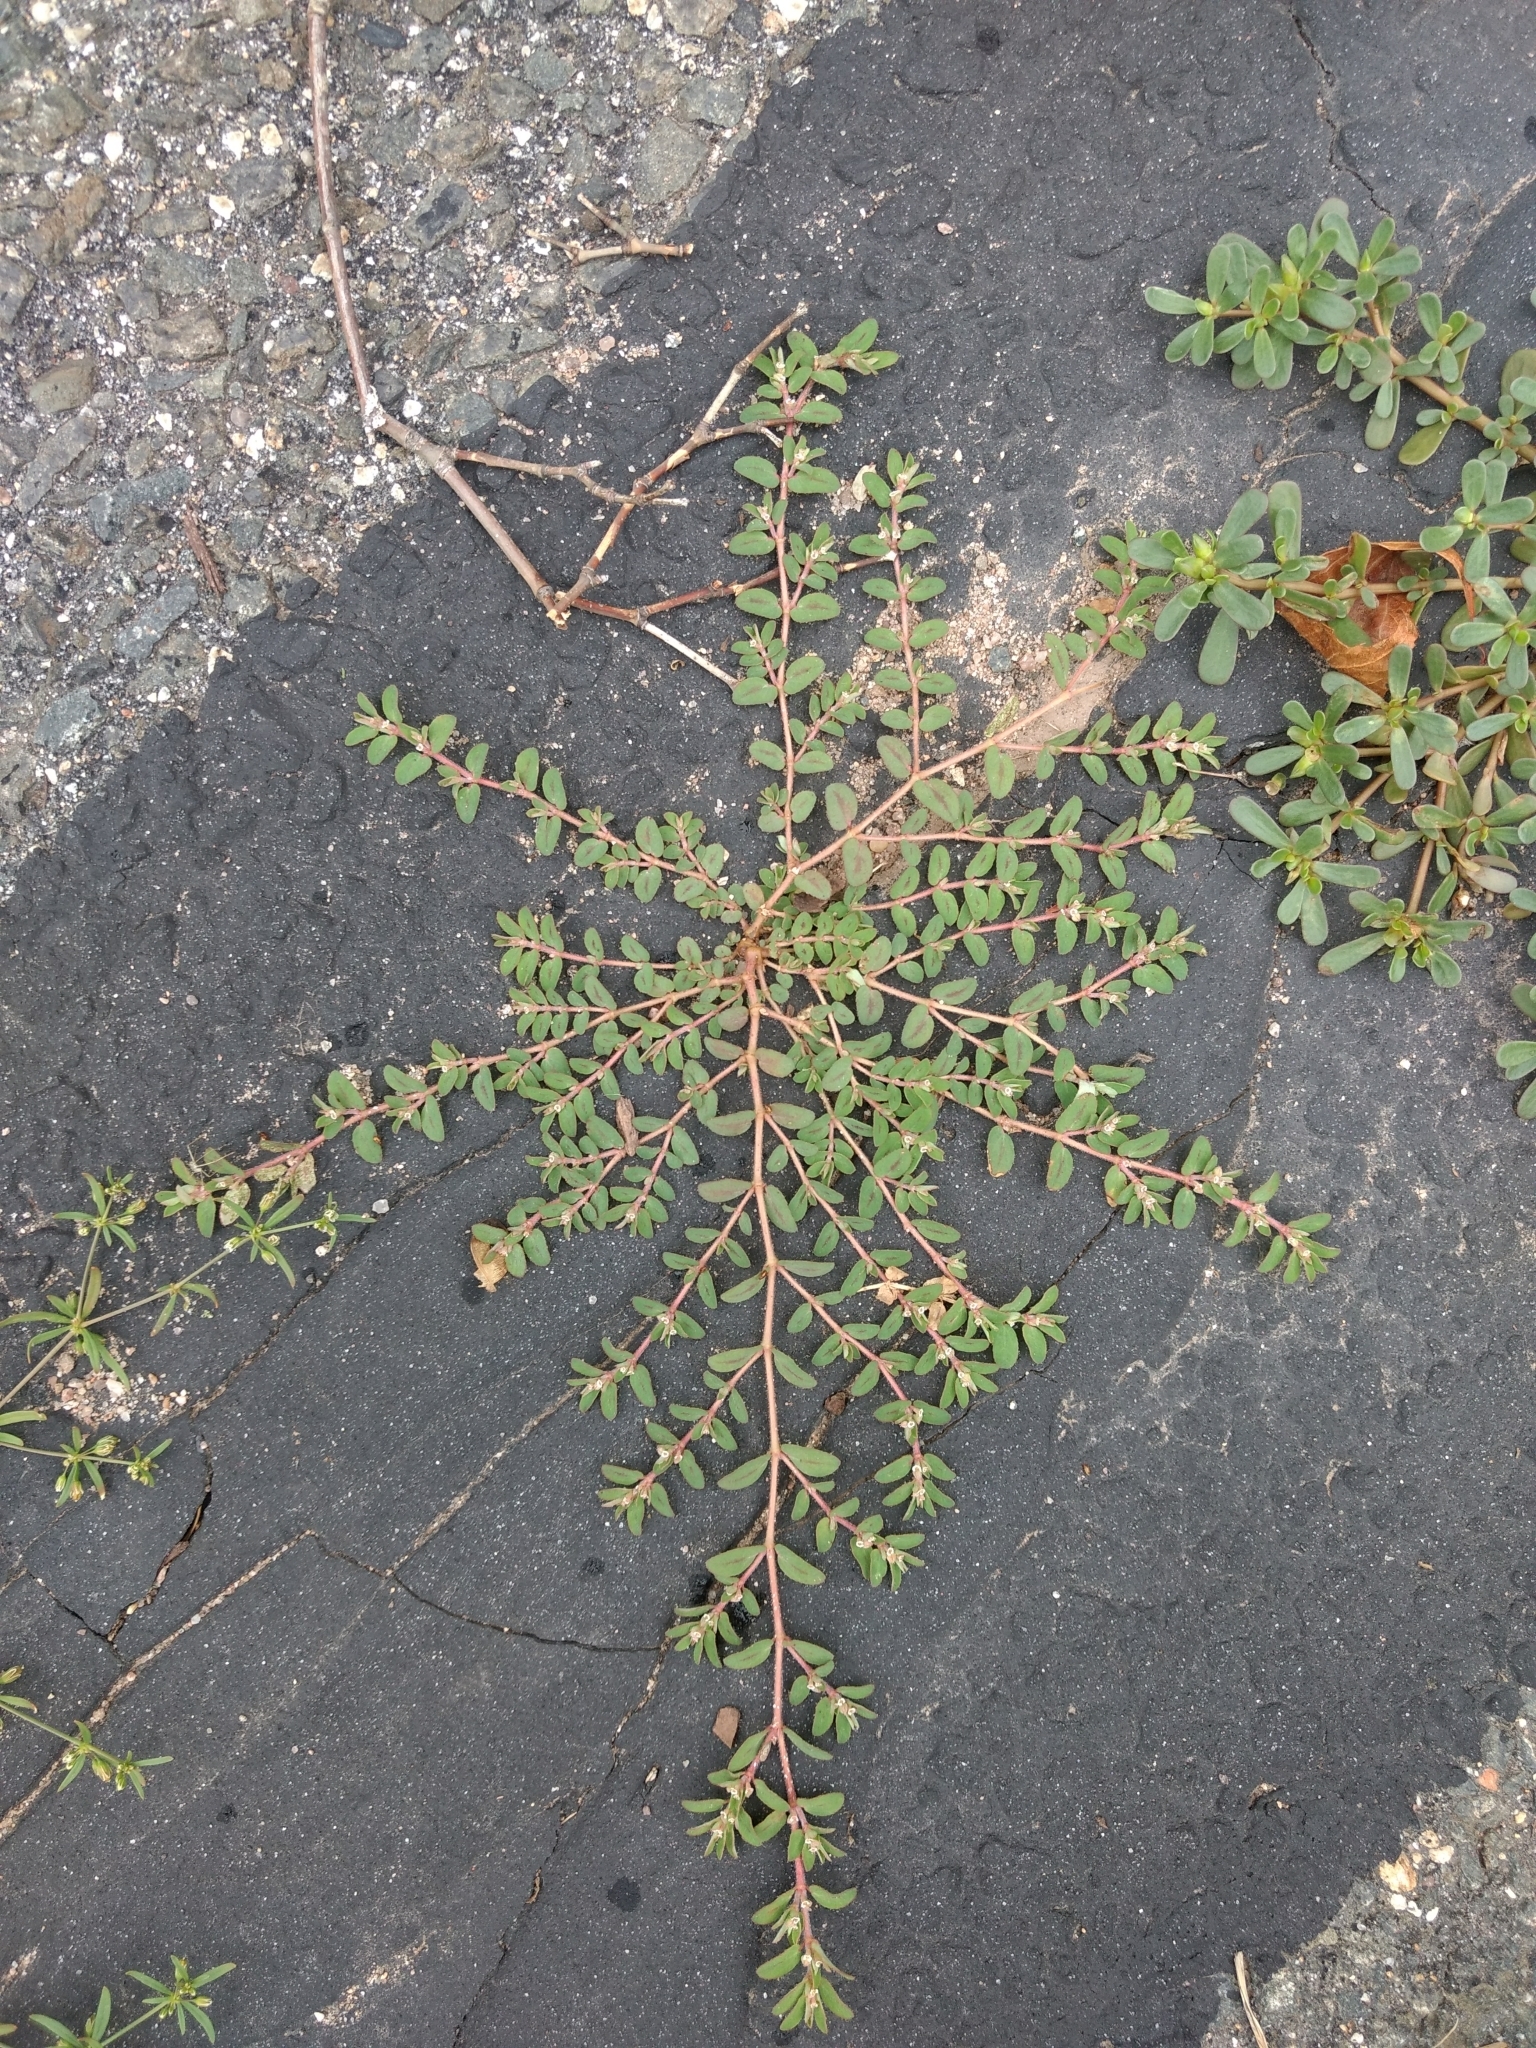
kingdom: Plantae
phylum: Tracheophyta
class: Magnoliopsida
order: Malpighiales
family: Euphorbiaceae
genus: Euphorbia
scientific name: Euphorbia maculata
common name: Spotted spurge
